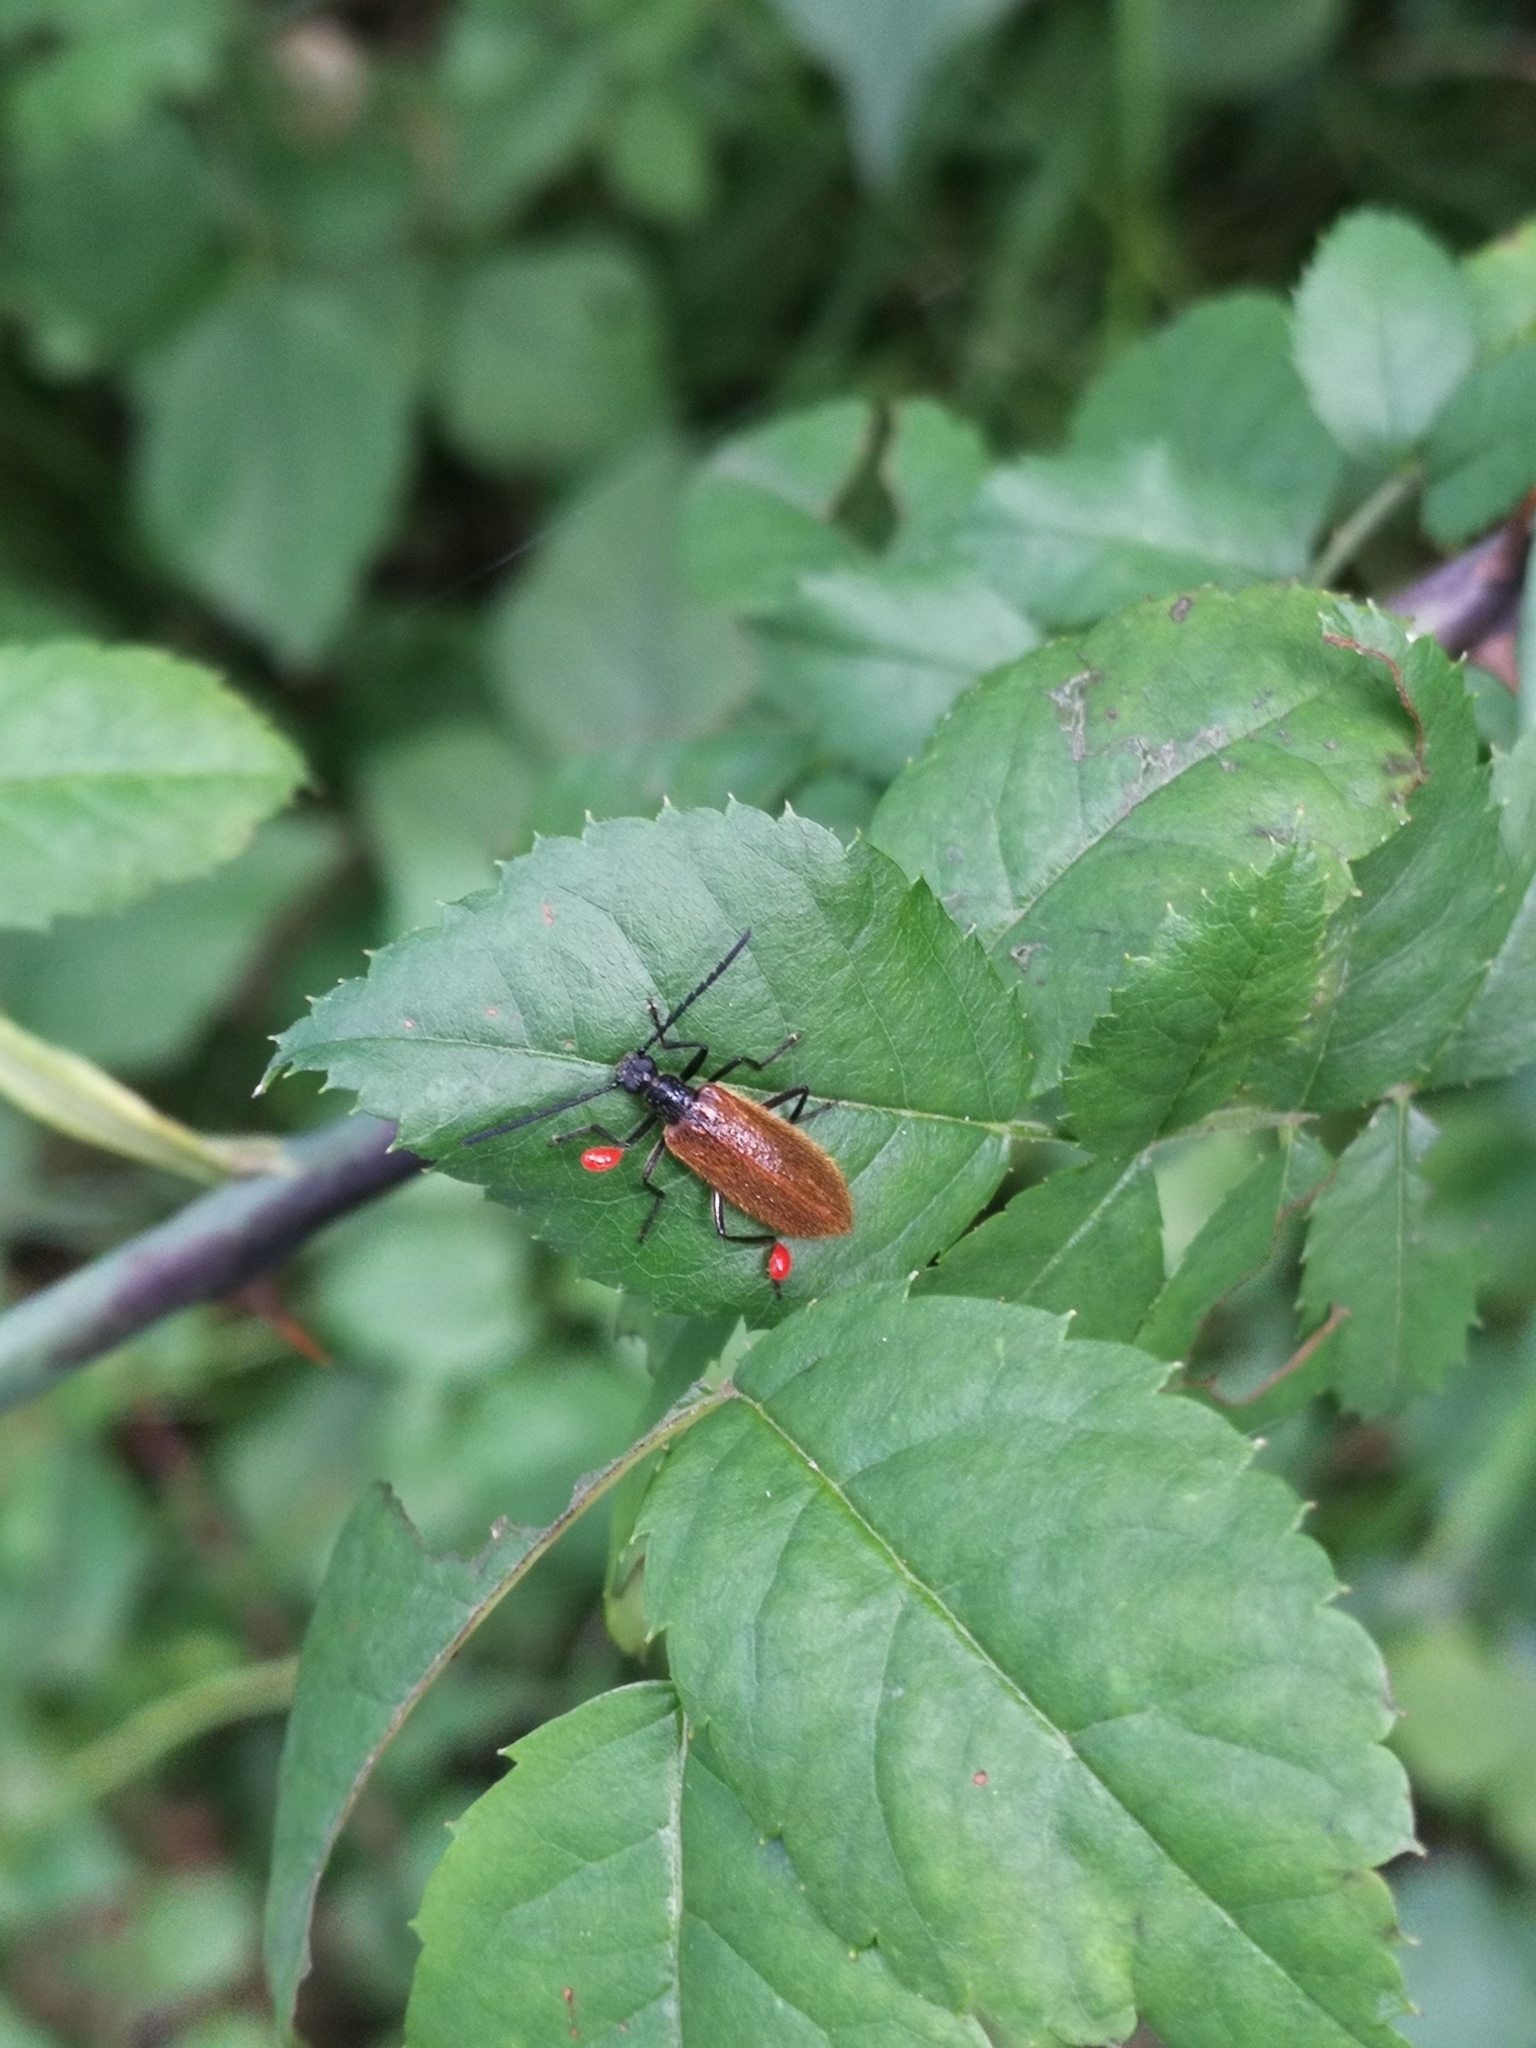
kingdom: Animalia
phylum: Arthropoda
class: Insecta
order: Coleoptera
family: Tenebrionidae
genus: Lagria
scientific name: Lagria hirta
